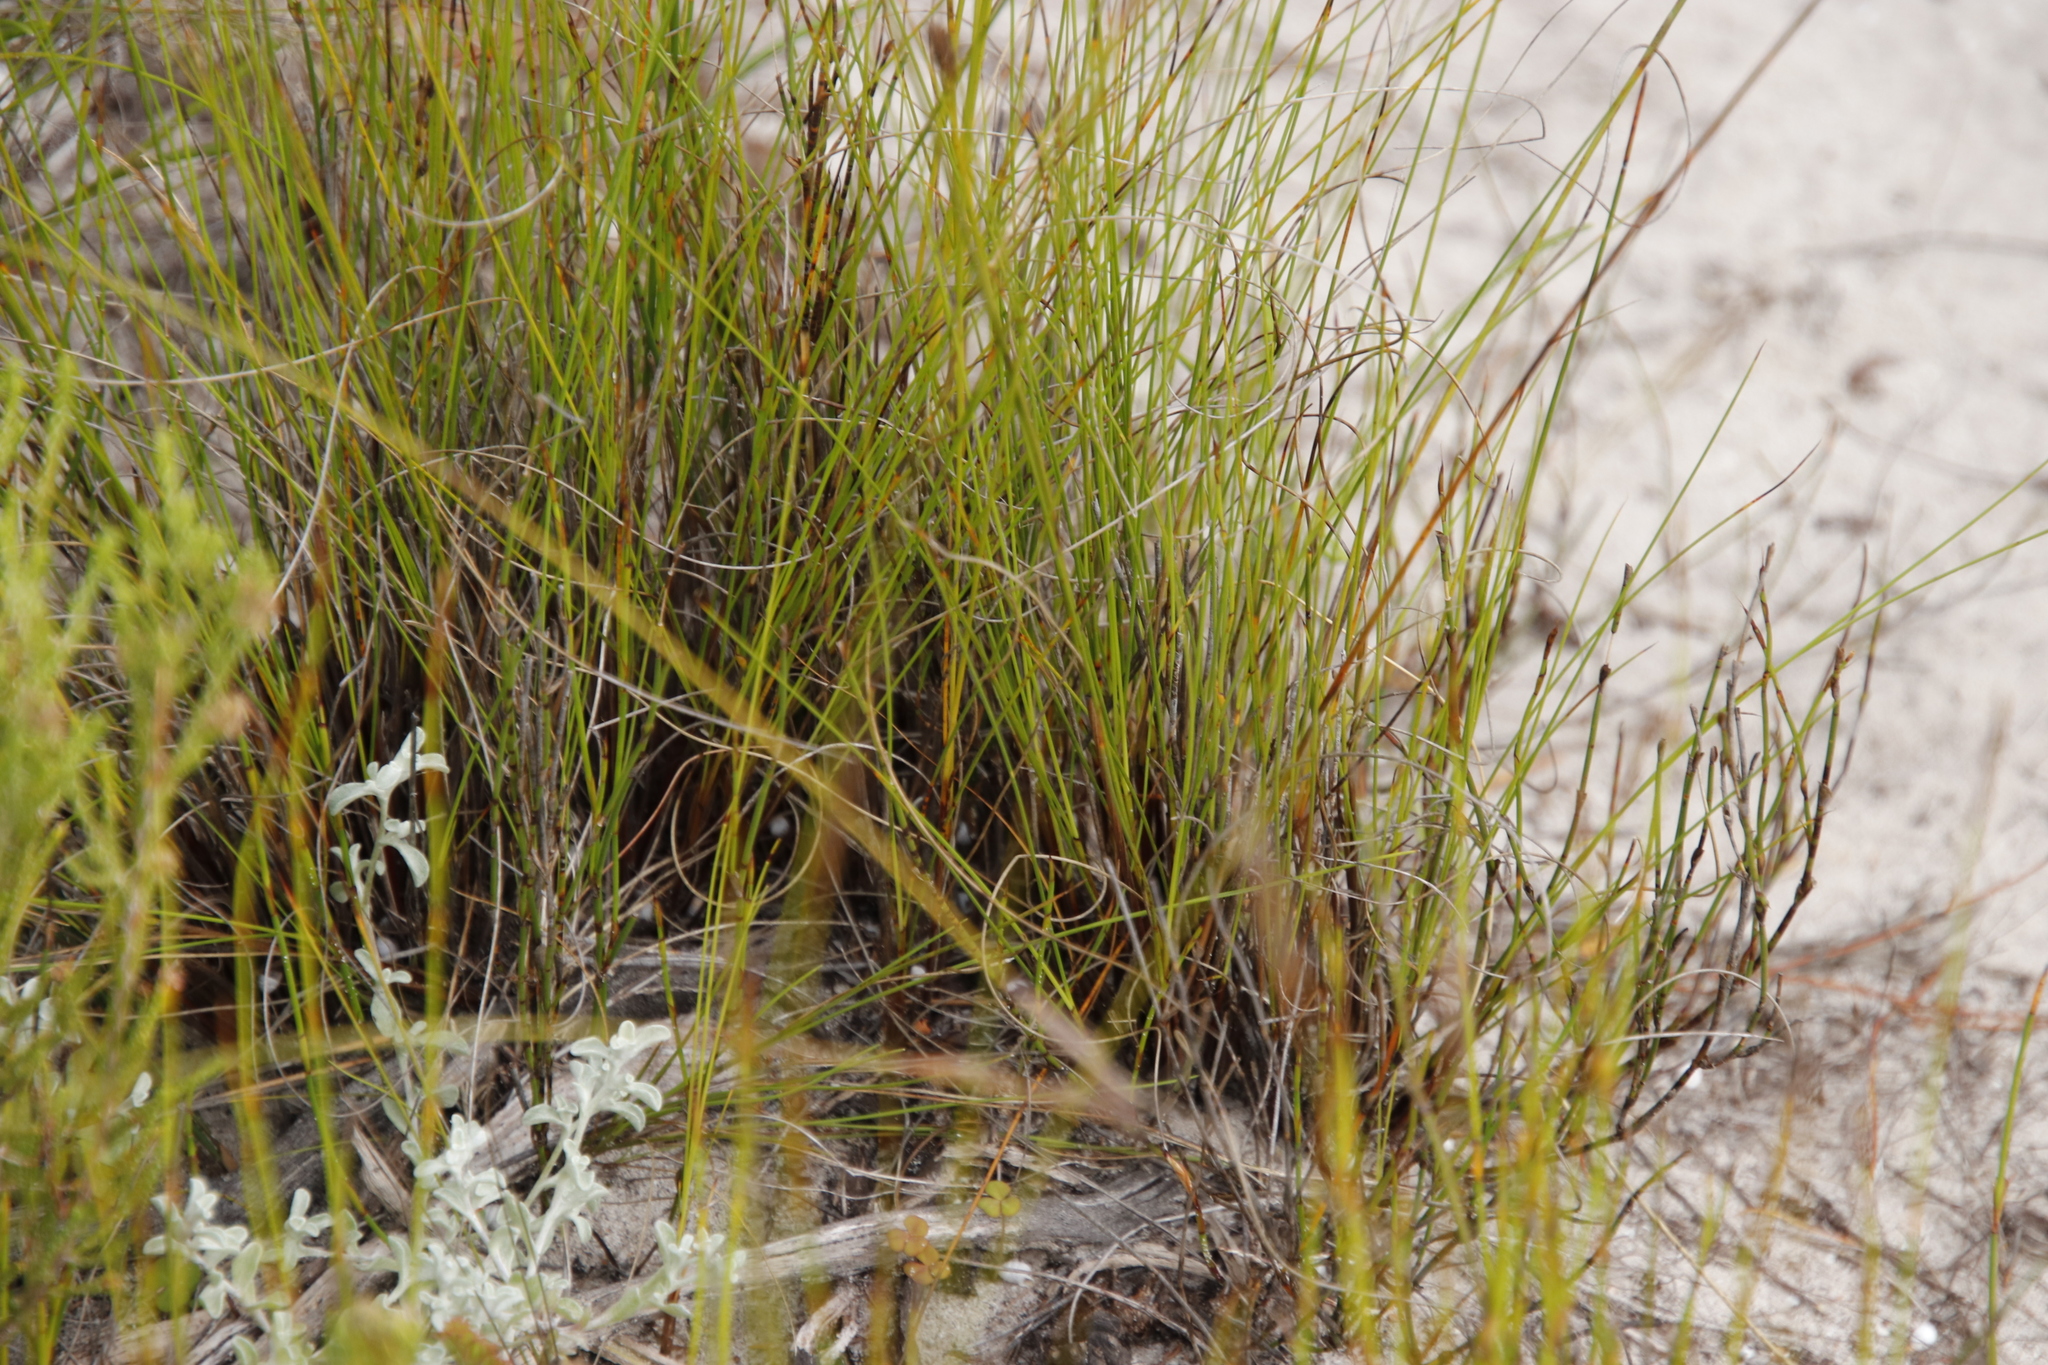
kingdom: Plantae
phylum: Tracheophyta
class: Liliopsida
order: Poales
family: Cyperaceae
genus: Schoenus
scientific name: Schoenus cuspidatus
